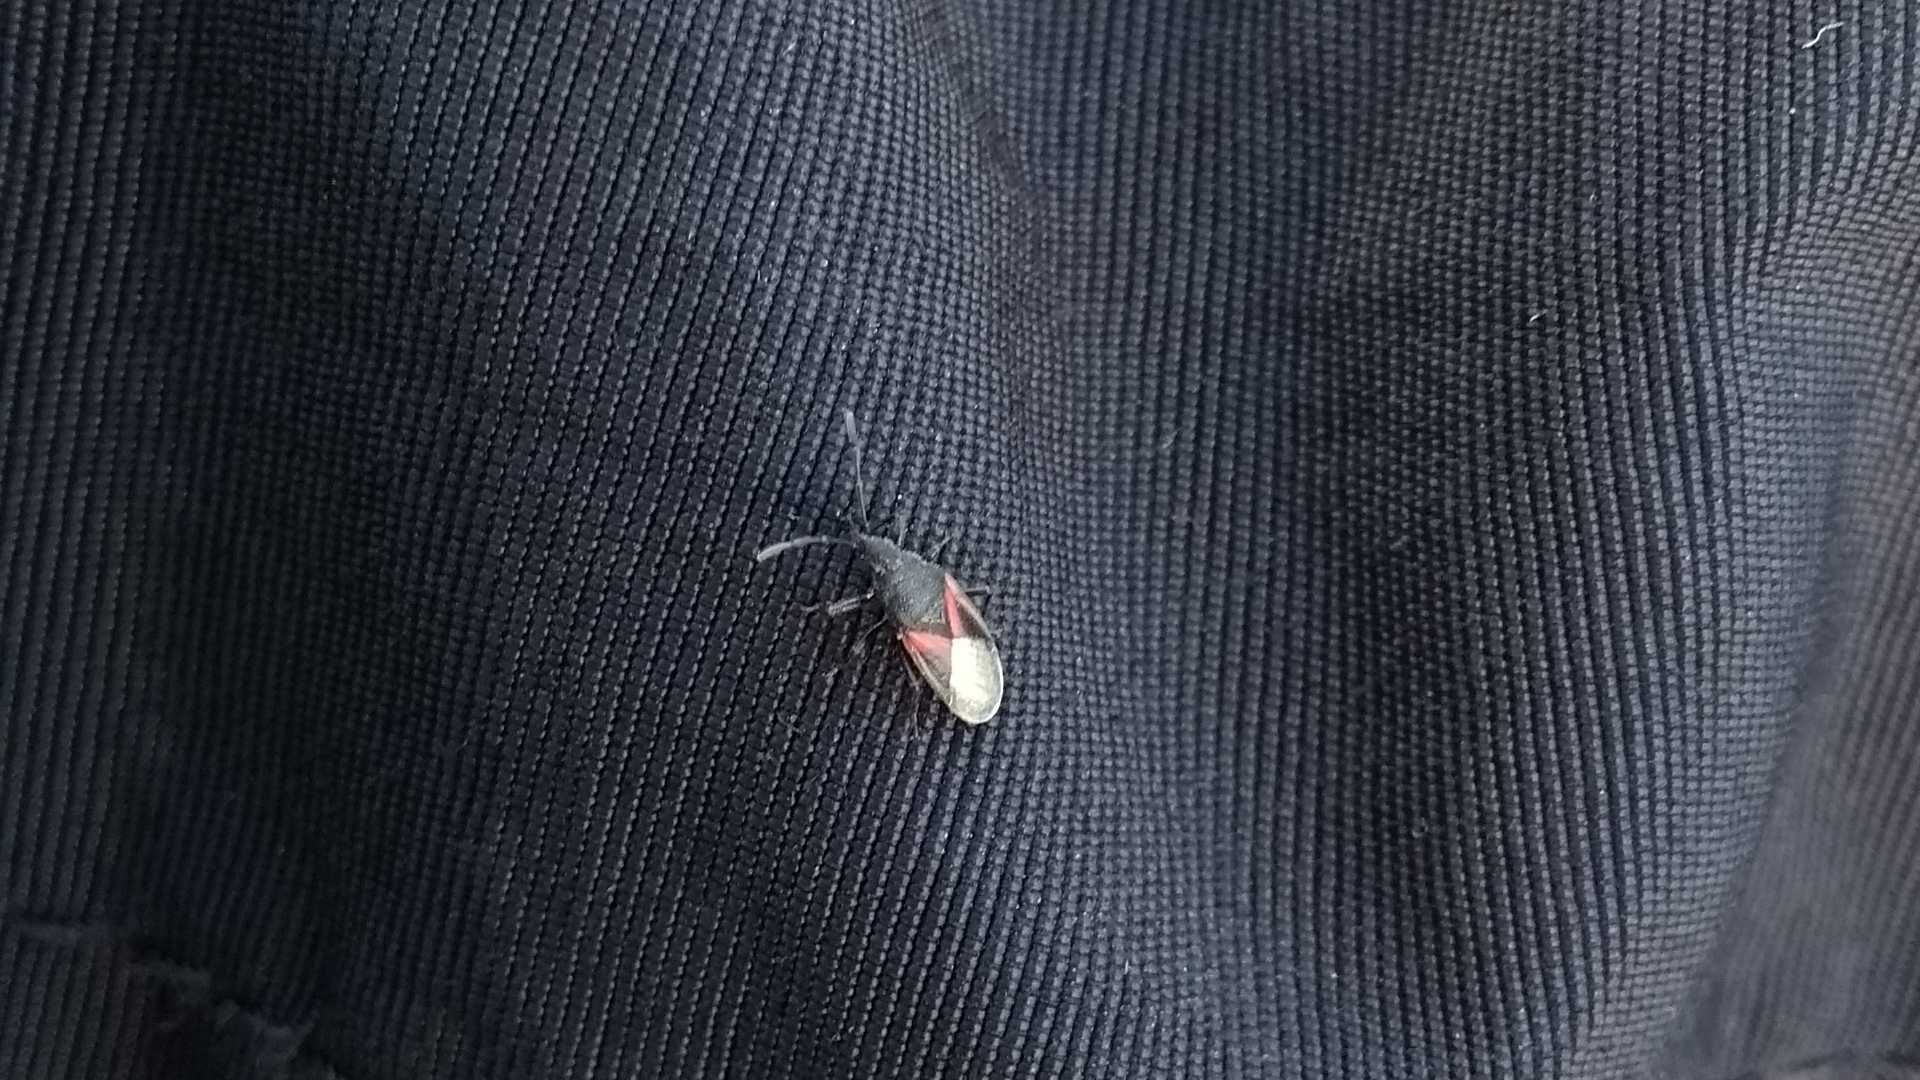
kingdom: Animalia
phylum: Arthropoda
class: Insecta
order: Hemiptera
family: Oxycarenidae
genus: Oxycarenus
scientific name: Oxycarenus lavaterae
